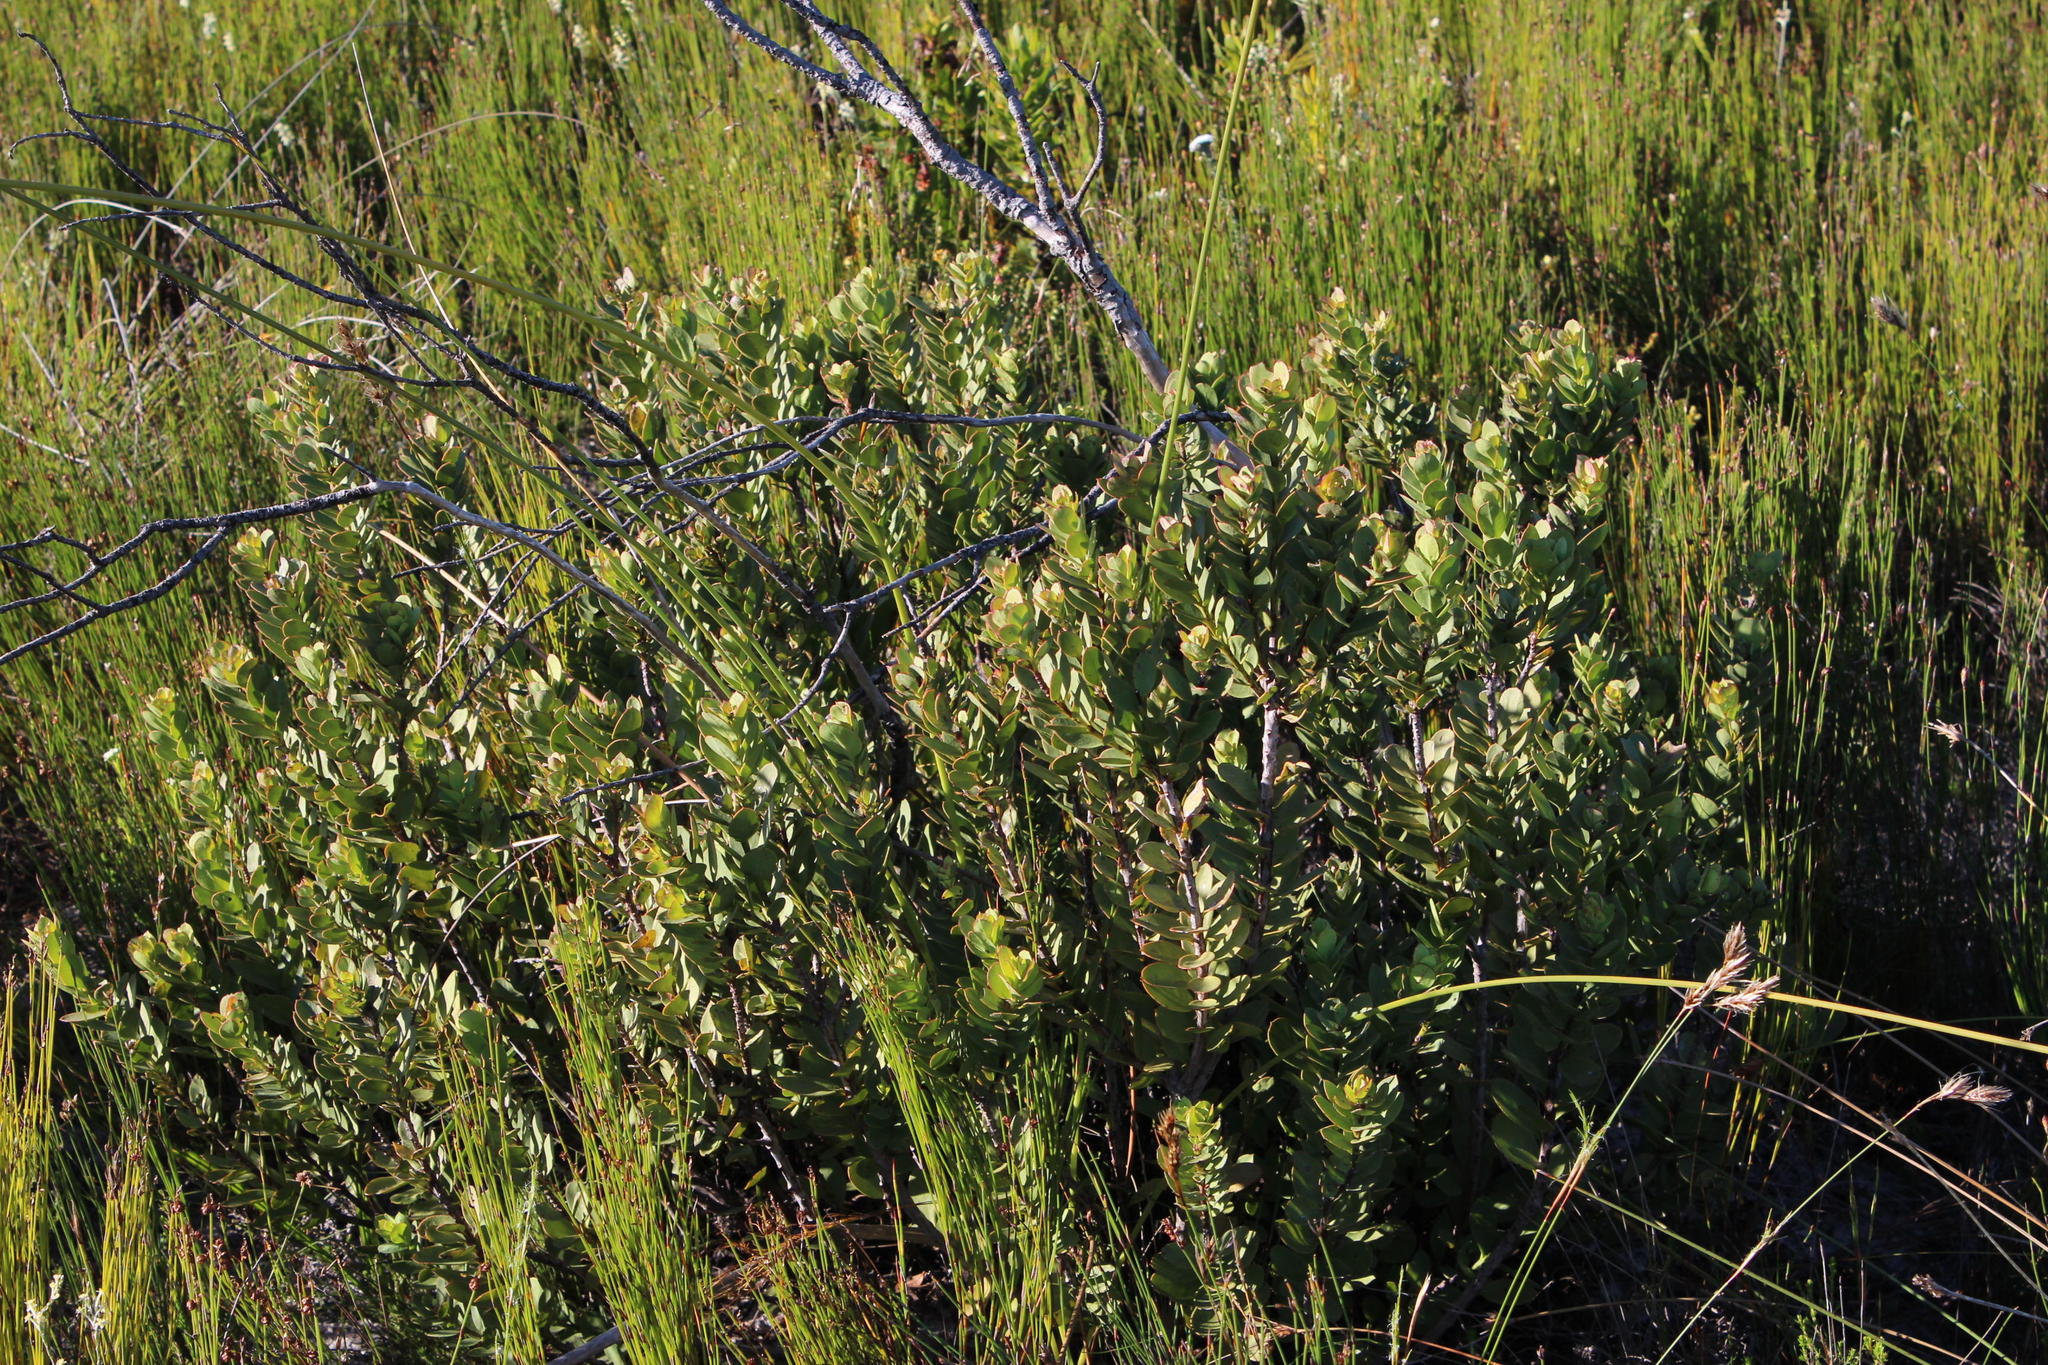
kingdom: Plantae
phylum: Tracheophyta
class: Magnoliopsida
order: Santalales
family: Santalaceae
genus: Osyris
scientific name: Osyris compressa
